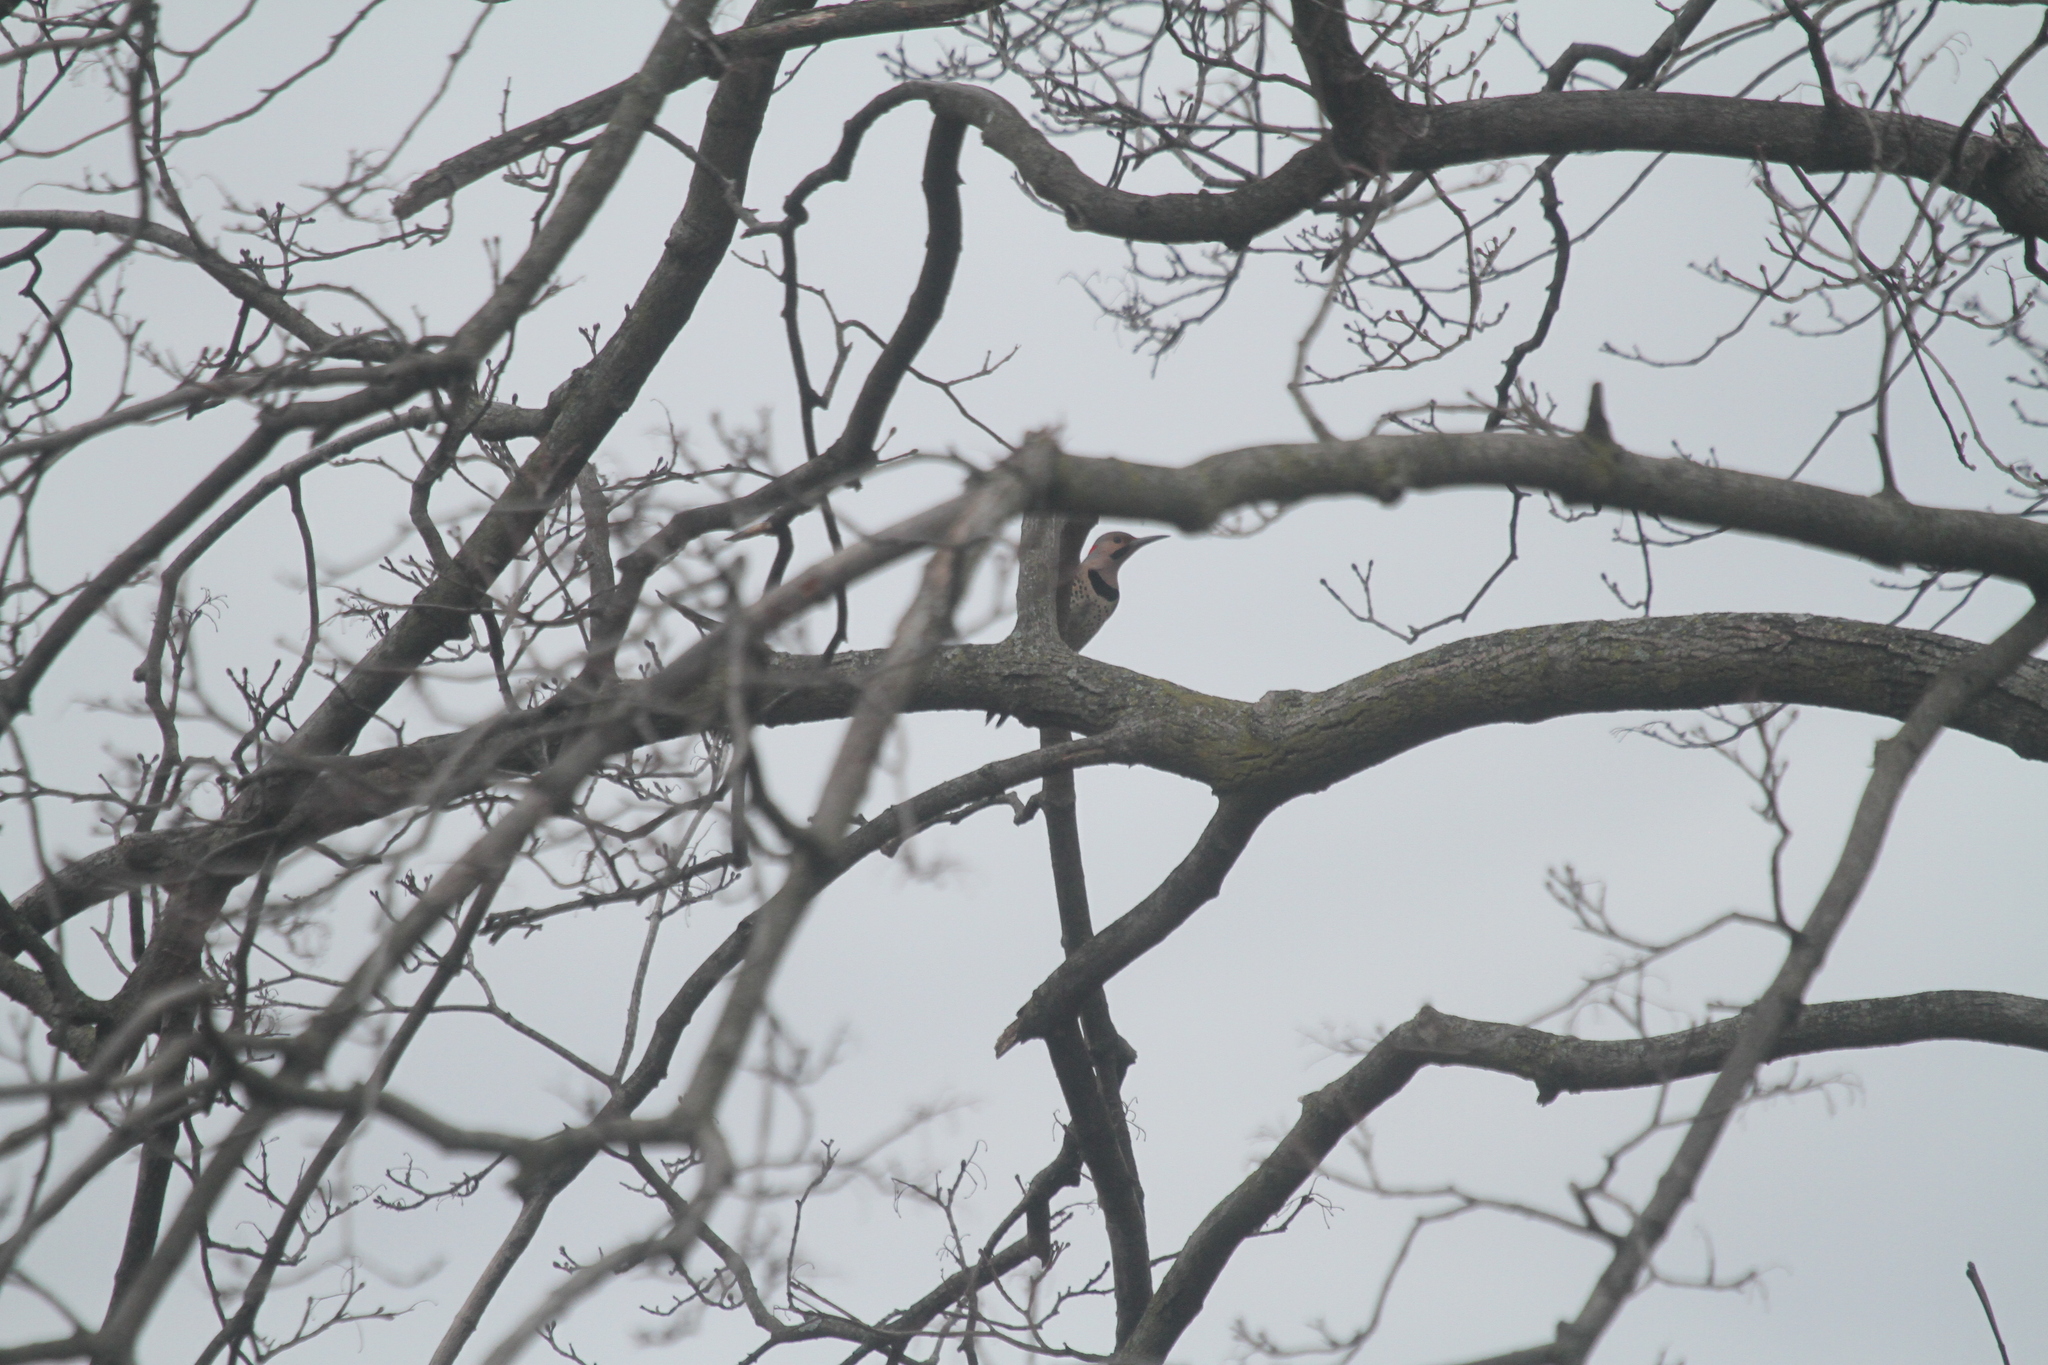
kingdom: Animalia
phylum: Chordata
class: Aves
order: Piciformes
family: Picidae
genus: Colaptes
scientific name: Colaptes auratus
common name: Northern flicker
